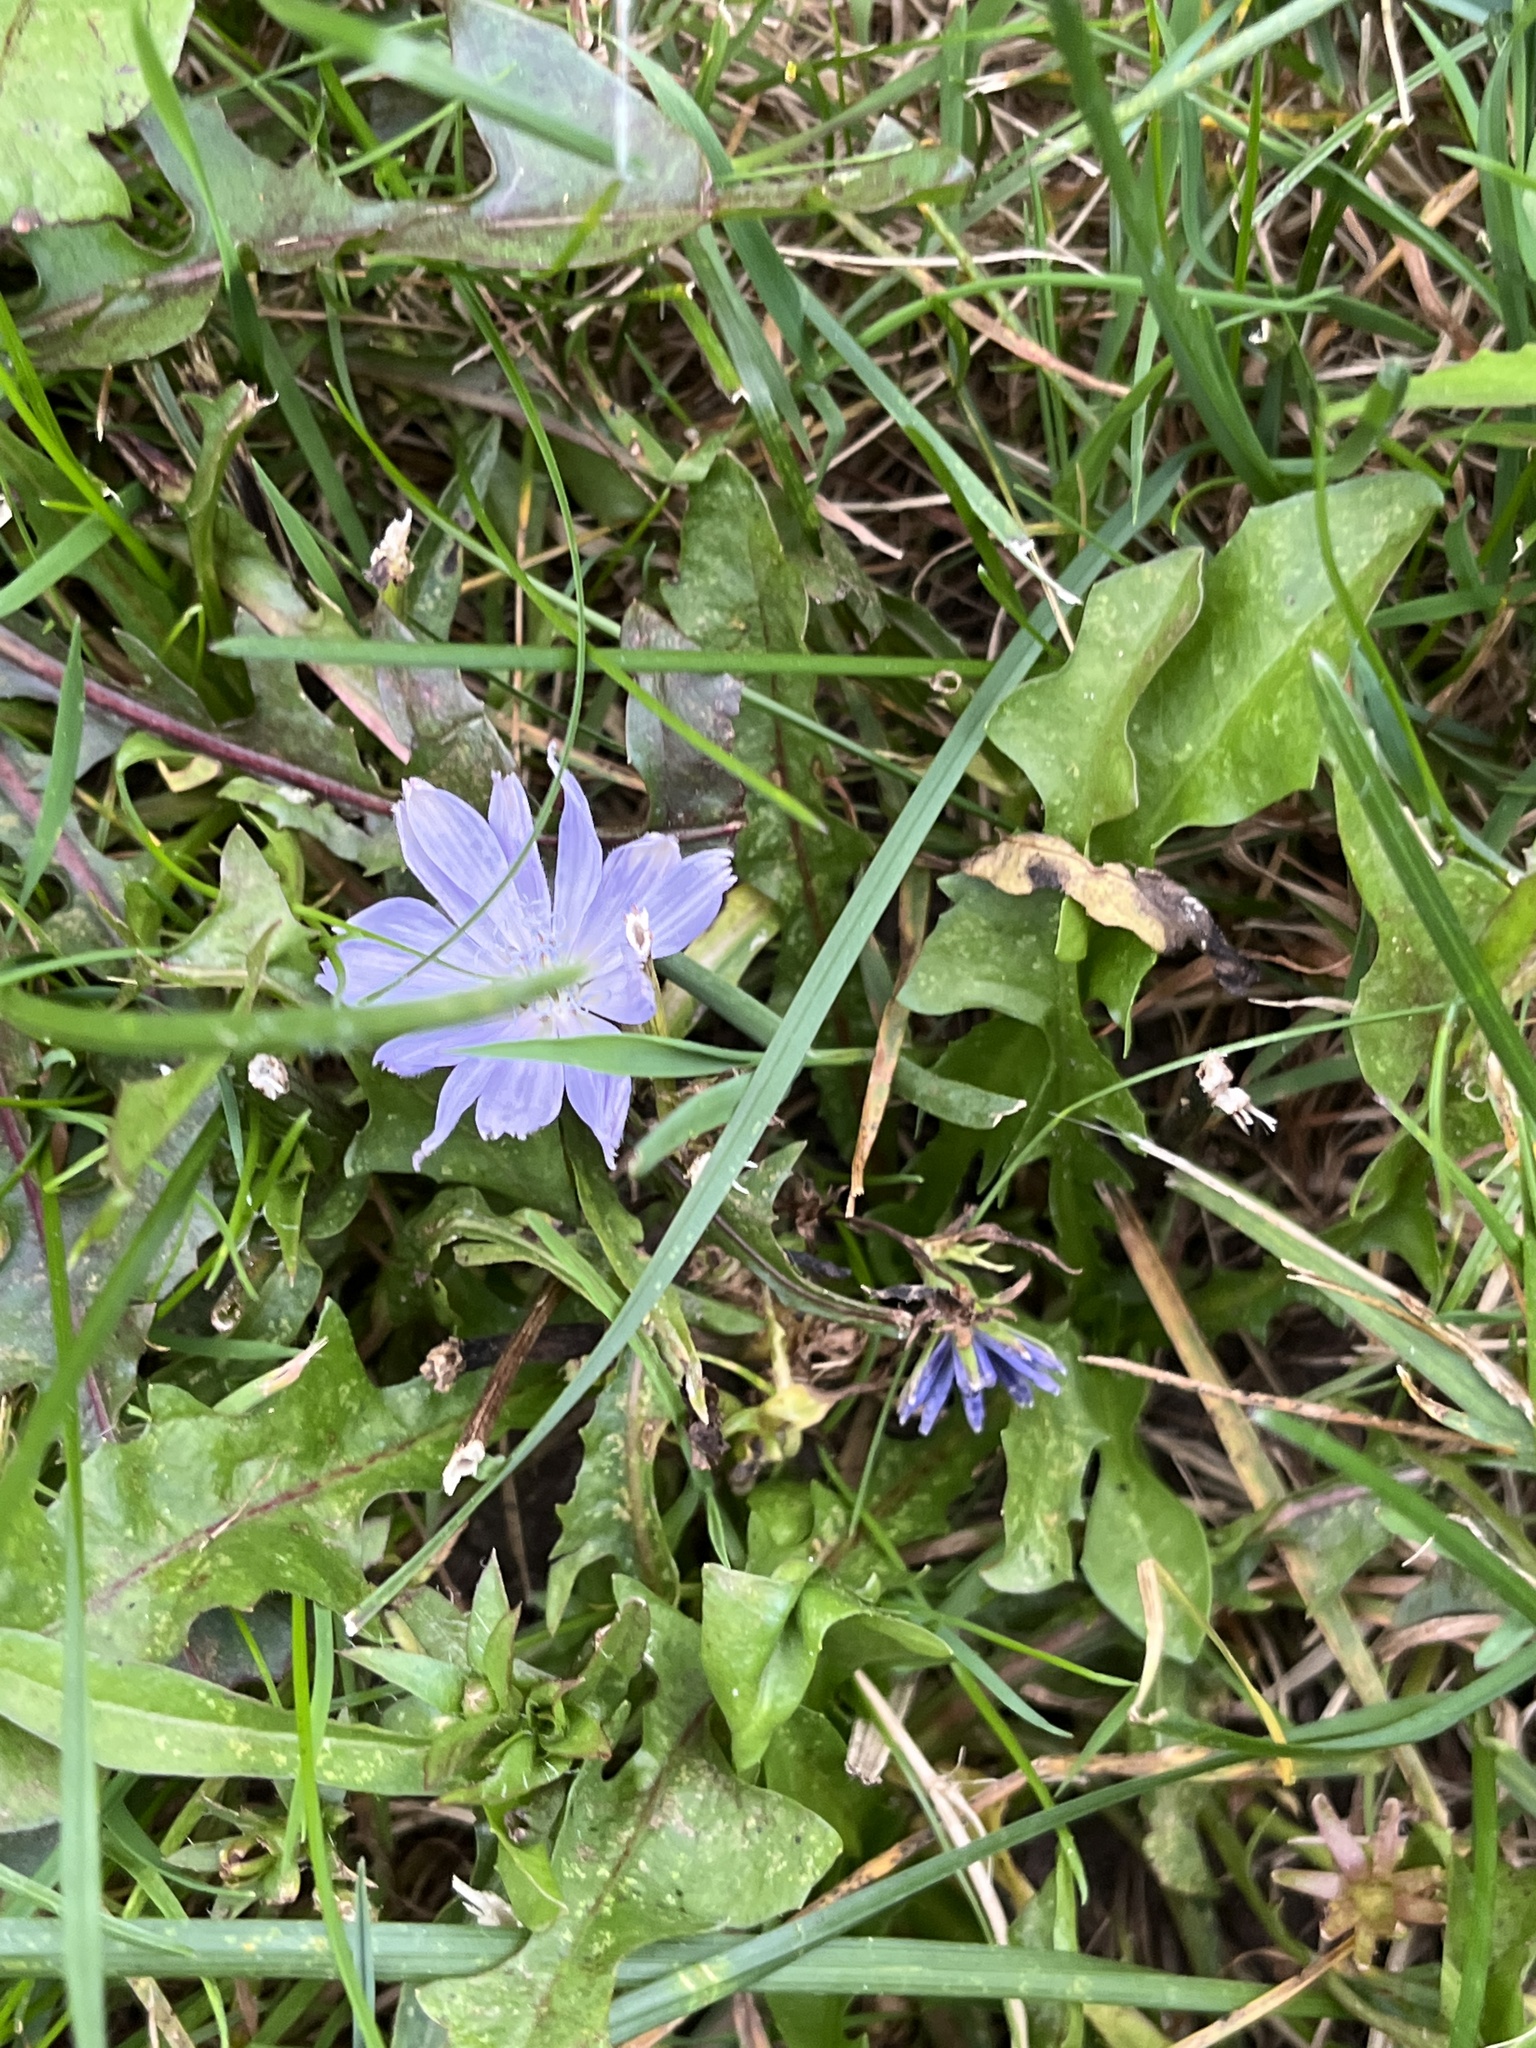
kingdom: Plantae
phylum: Tracheophyta
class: Magnoliopsida
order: Asterales
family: Asteraceae
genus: Cichorium
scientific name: Cichorium intybus
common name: Chicory
